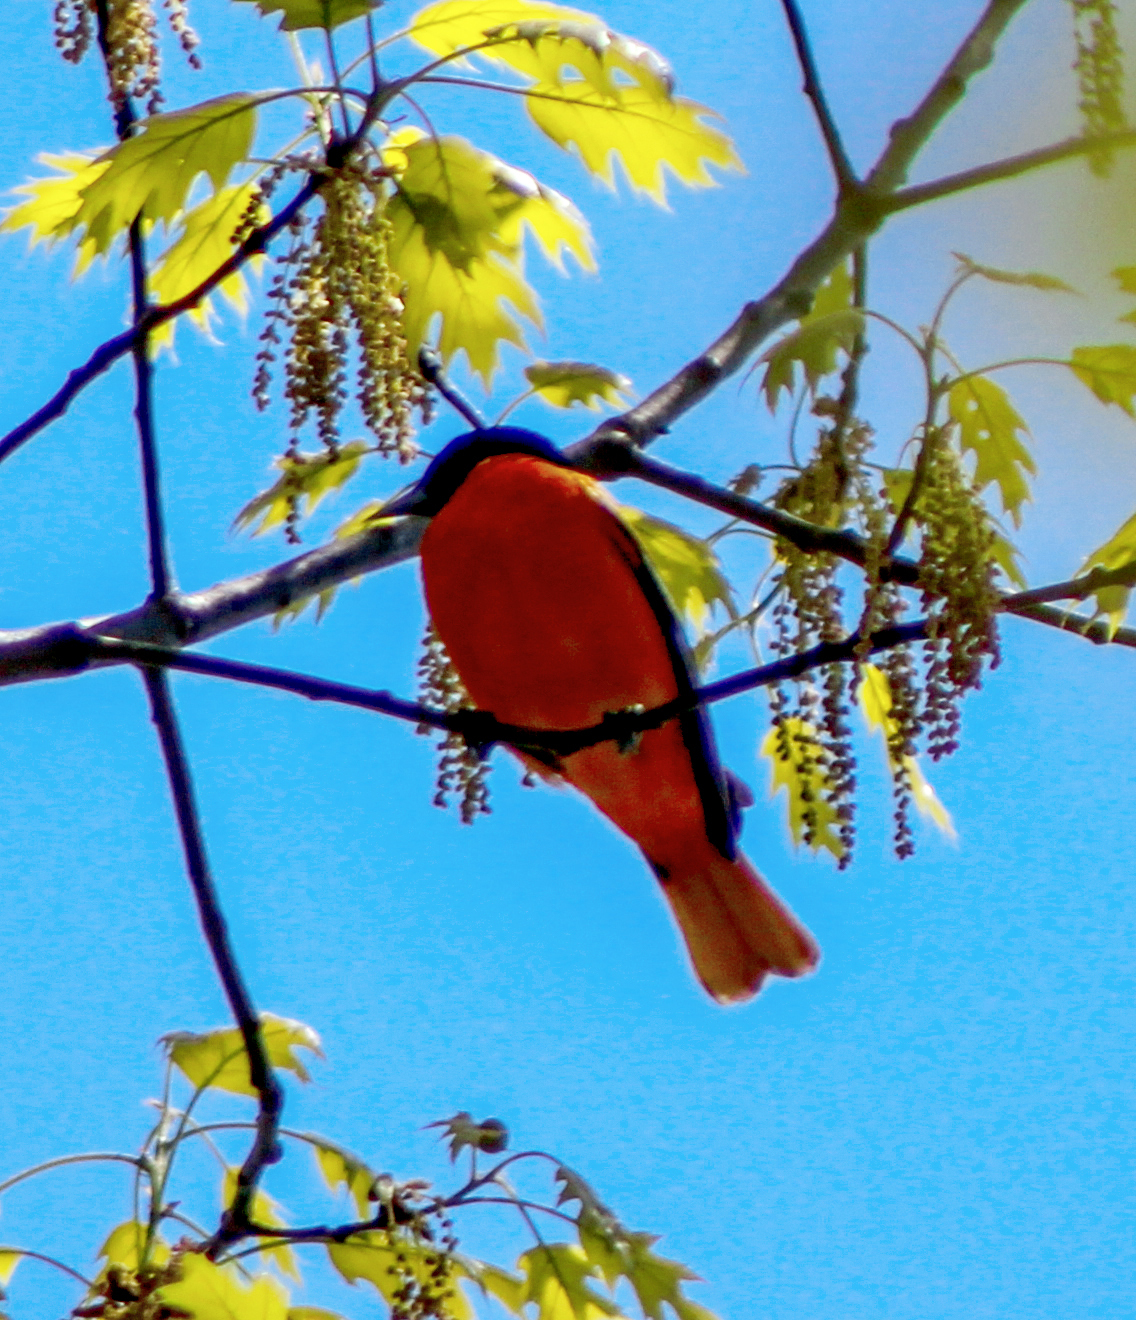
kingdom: Animalia
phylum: Chordata
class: Aves
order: Passeriformes
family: Icteridae
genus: Icterus
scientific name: Icterus galbula
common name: Baltimore oriole
